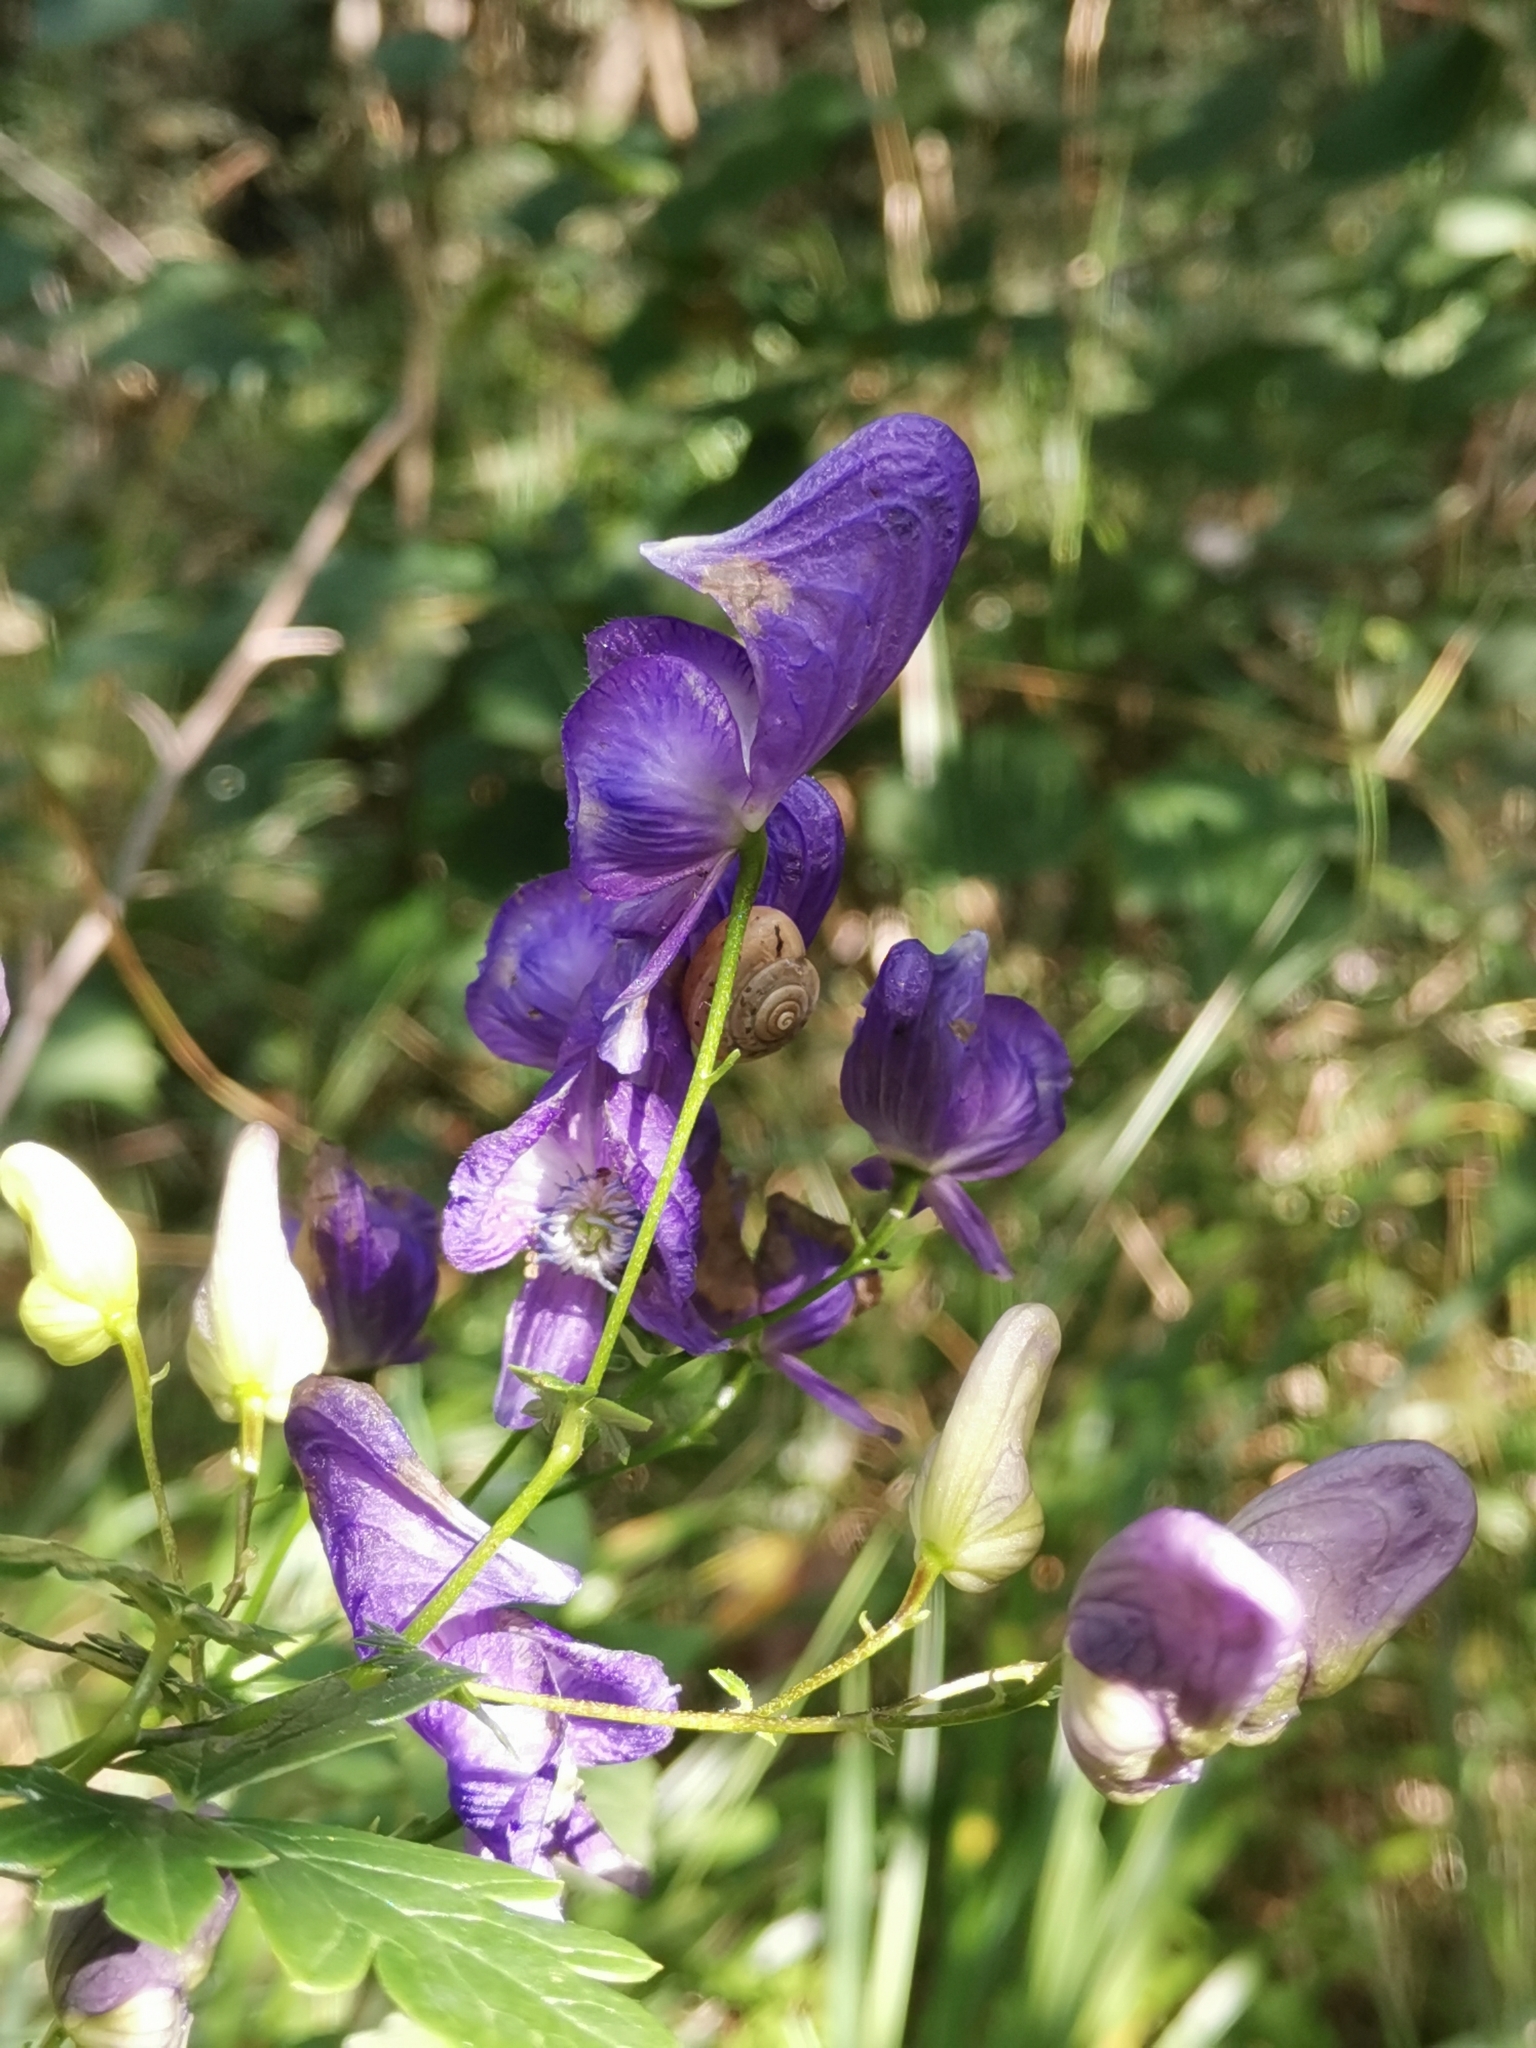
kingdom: Plantae
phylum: Tracheophyta
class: Magnoliopsida
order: Ranunculales
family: Ranunculaceae
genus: Aconitum
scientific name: Aconitum variegatum
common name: Manchurian monkshood
